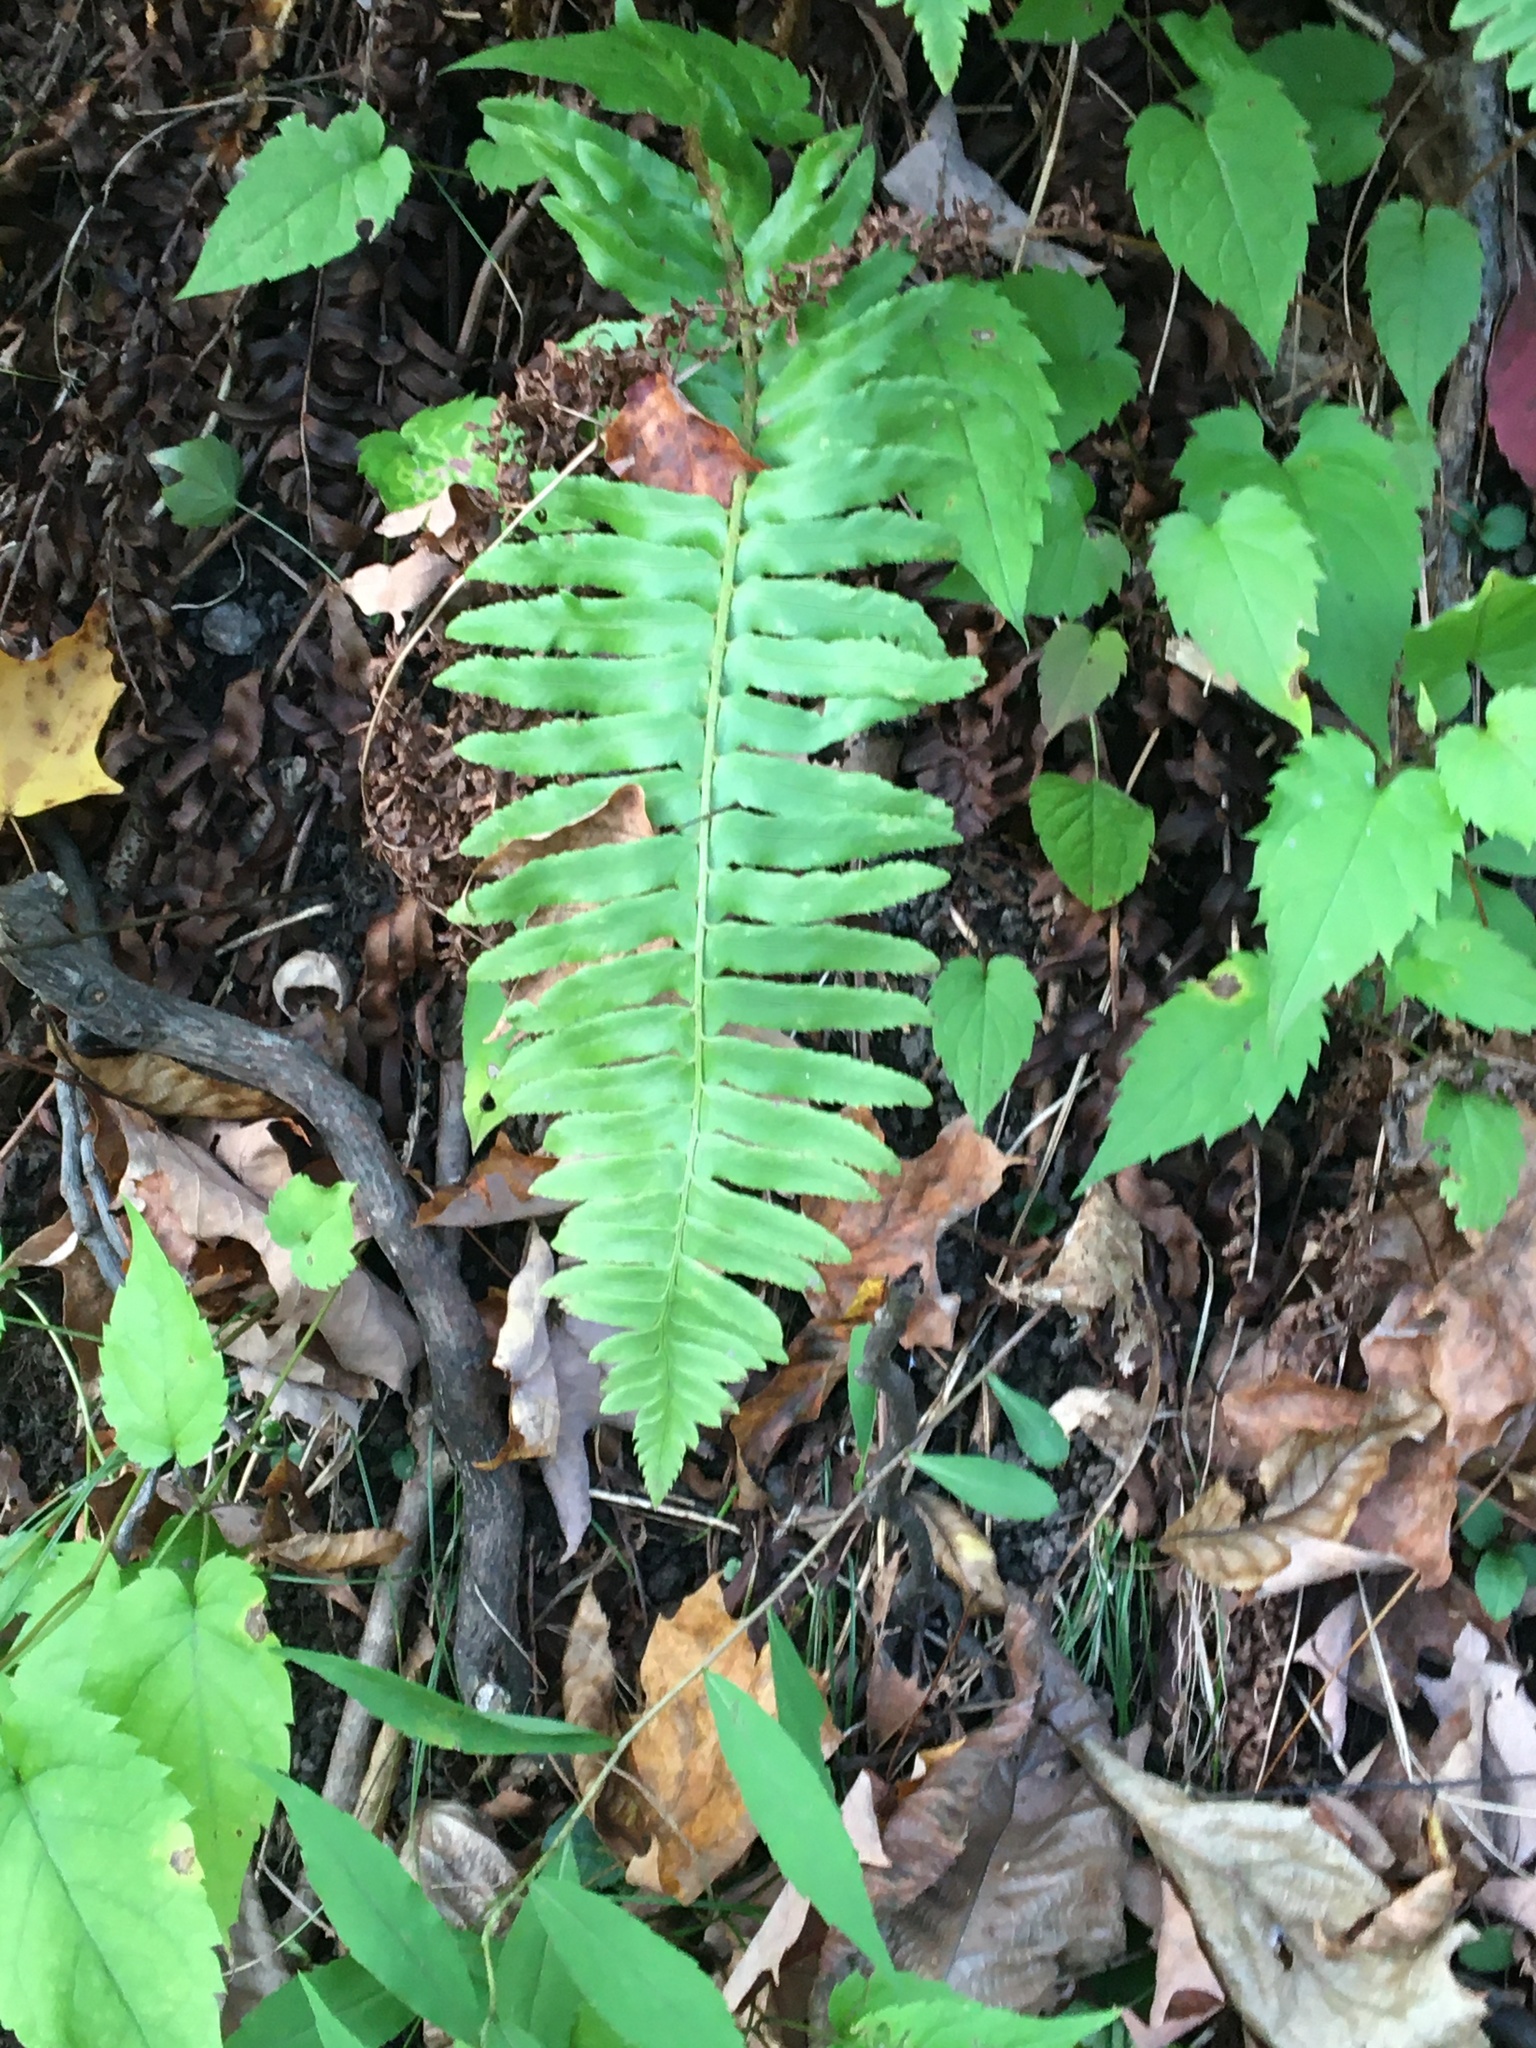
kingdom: Plantae
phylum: Tracheophyta
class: Polypodiopsida
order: Polypodiales
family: Dryopteridaceae
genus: Polystichum
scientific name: Polystichum acrostichoides
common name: Christmas fern
